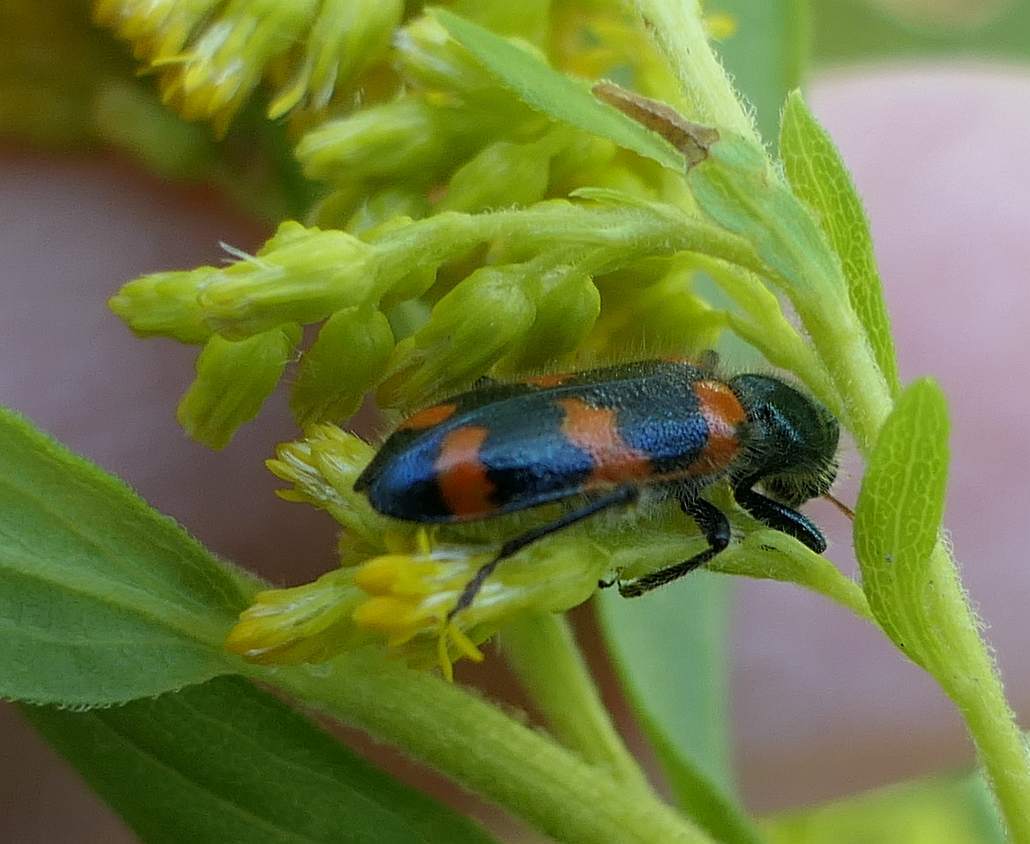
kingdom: Animalia
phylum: Arthropoda
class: Insecta
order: Coleoptera
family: Cleridae
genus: Trichodes
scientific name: Trichodes nutalli
